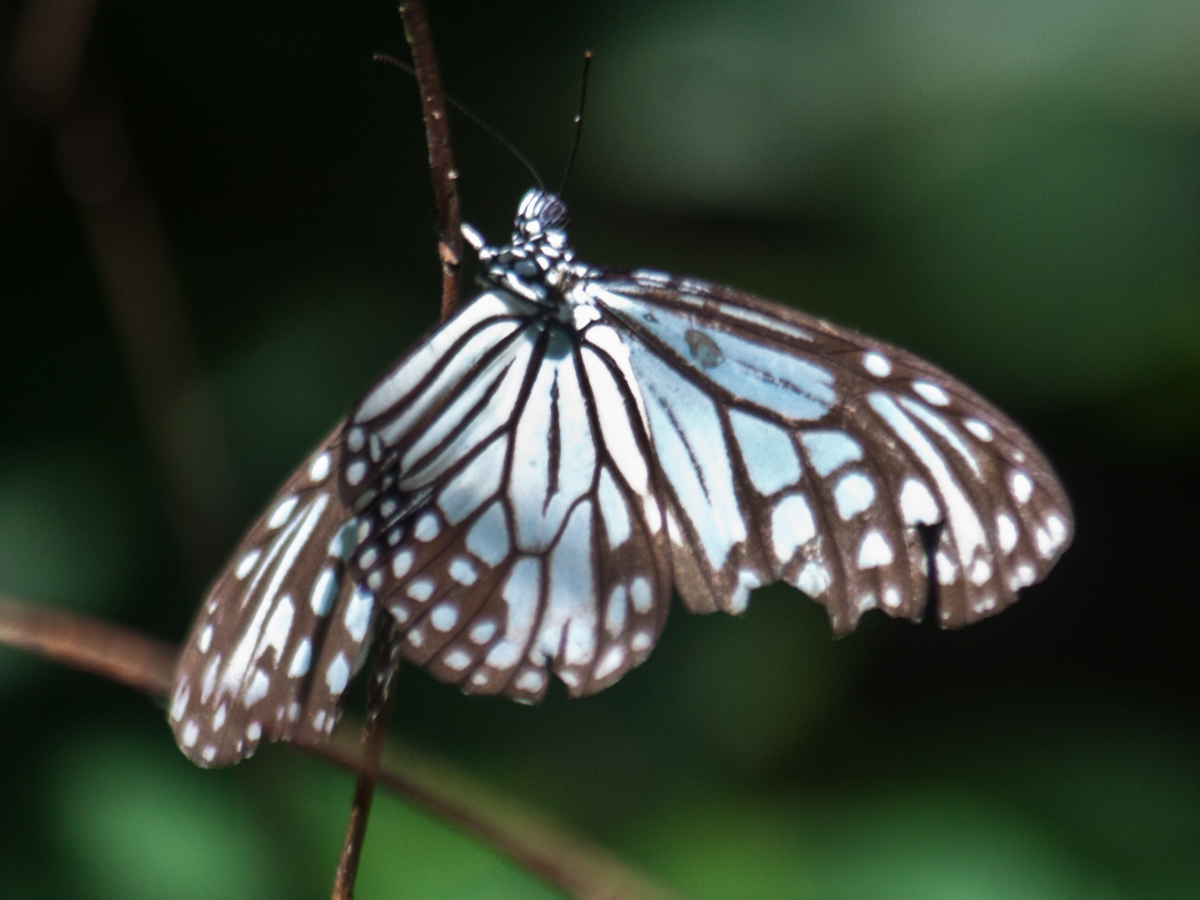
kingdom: Animalia
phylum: Arthropoda
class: Insecta
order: Lepidoptera
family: Nymphalidae
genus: Parantica
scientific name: Parantica aglea
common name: Glassy tiger
